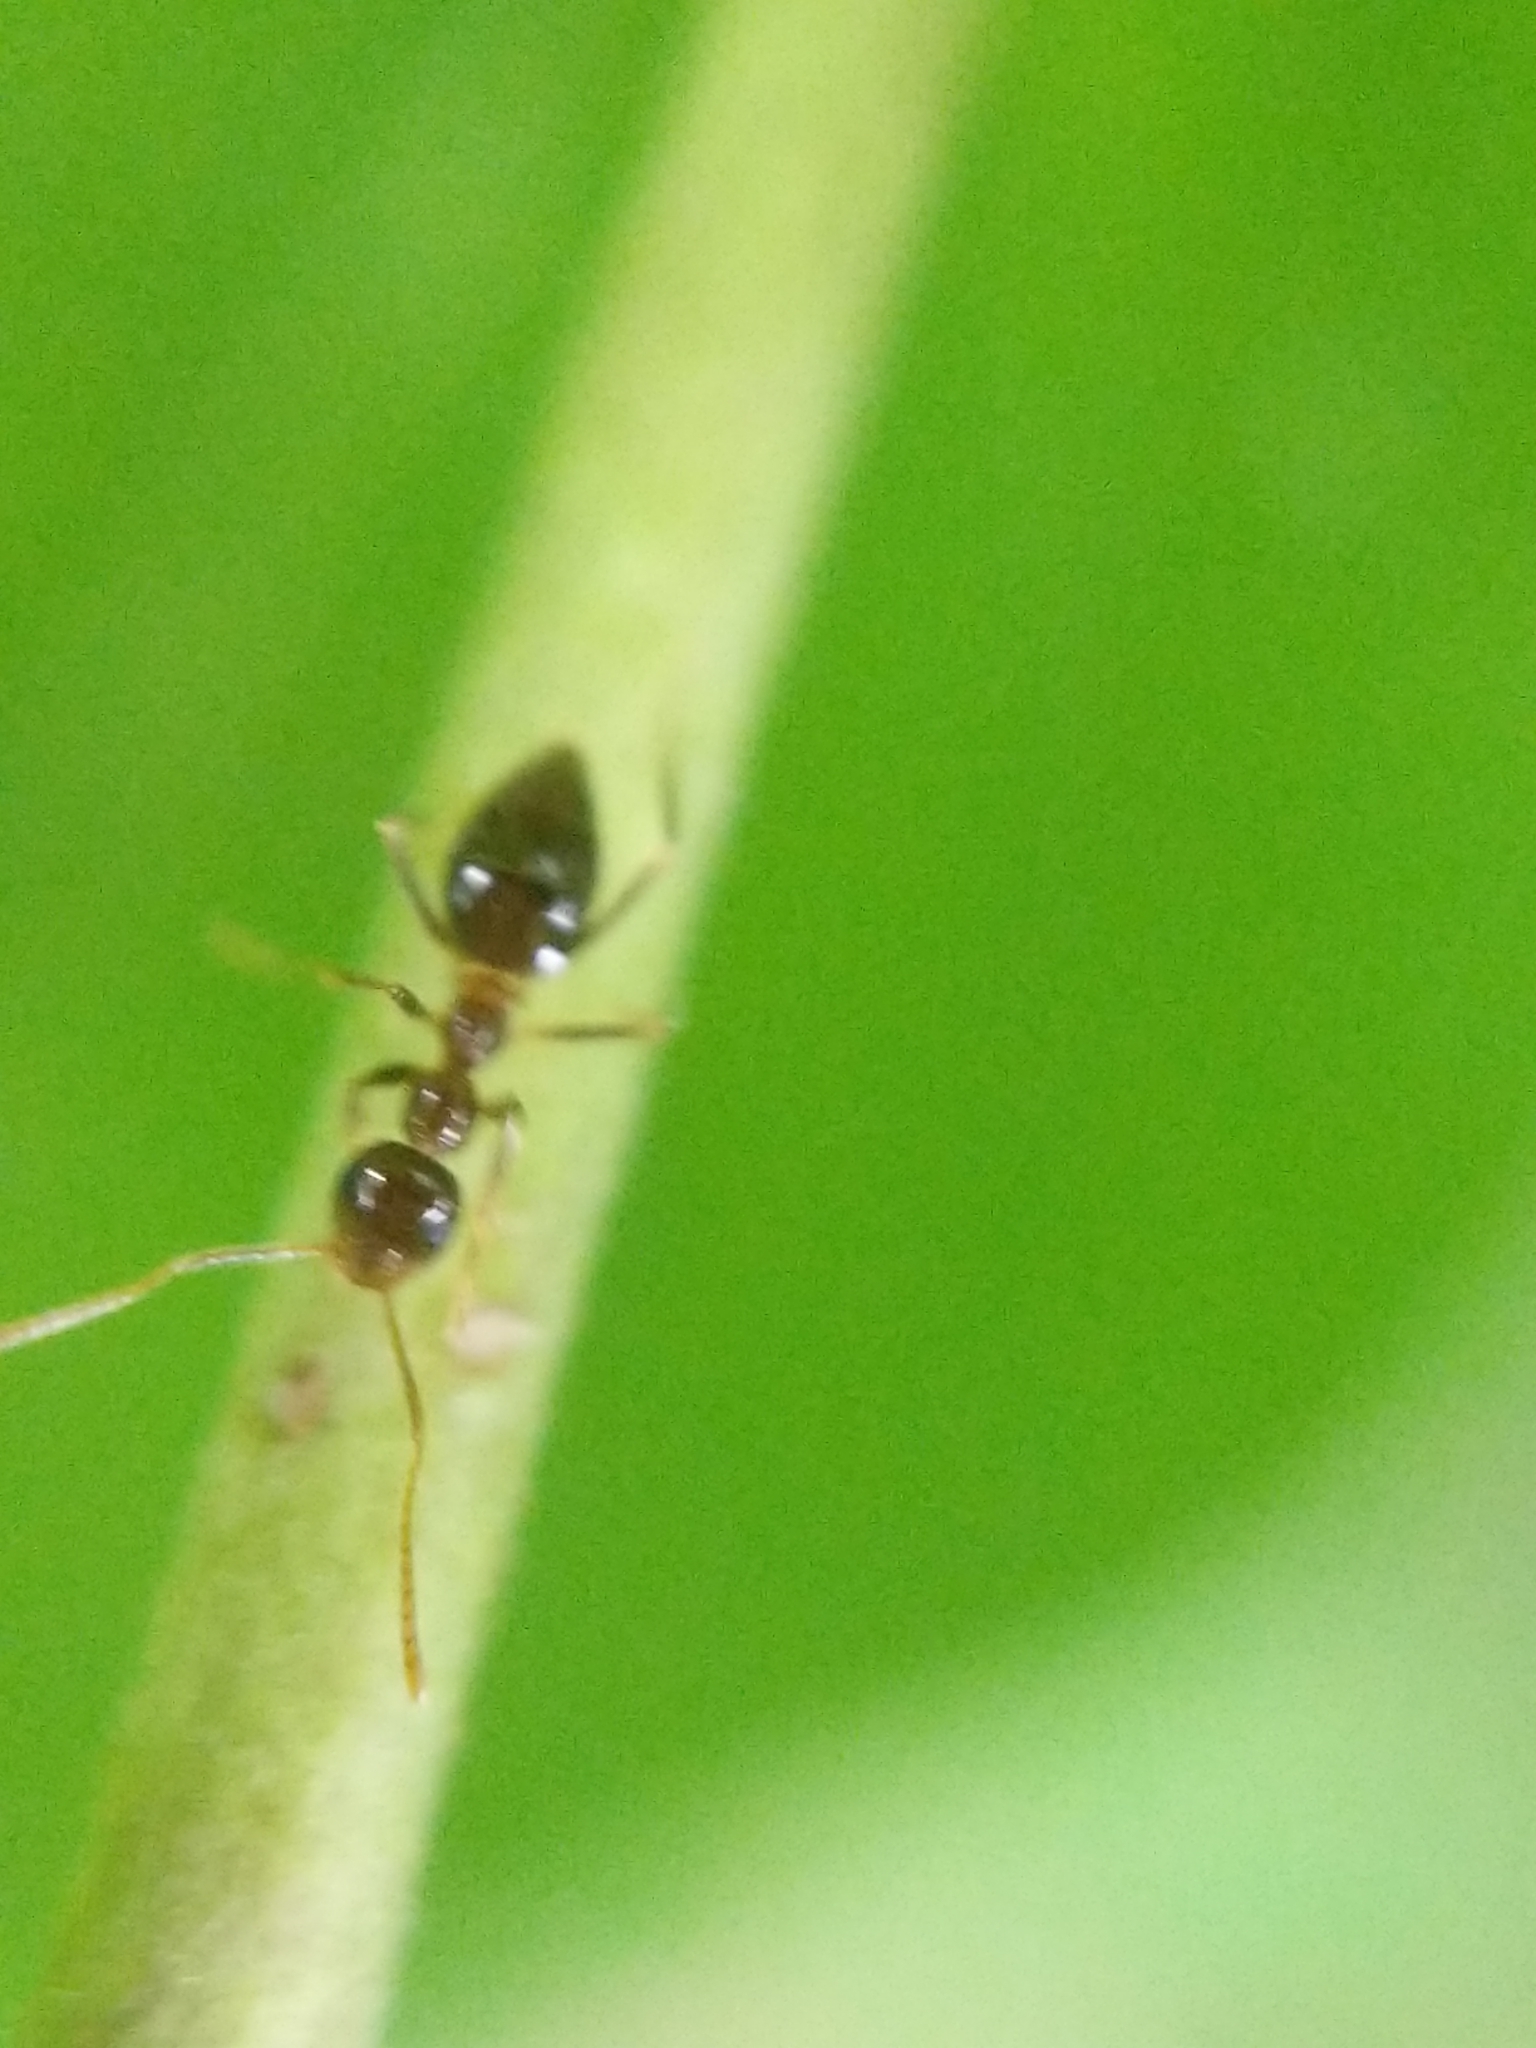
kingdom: Animalia
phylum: Arthropoda
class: Insecta
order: Hymenoptera
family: Formicidae
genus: Prenolepis
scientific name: Prenolepis imparis
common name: Small honey ant
